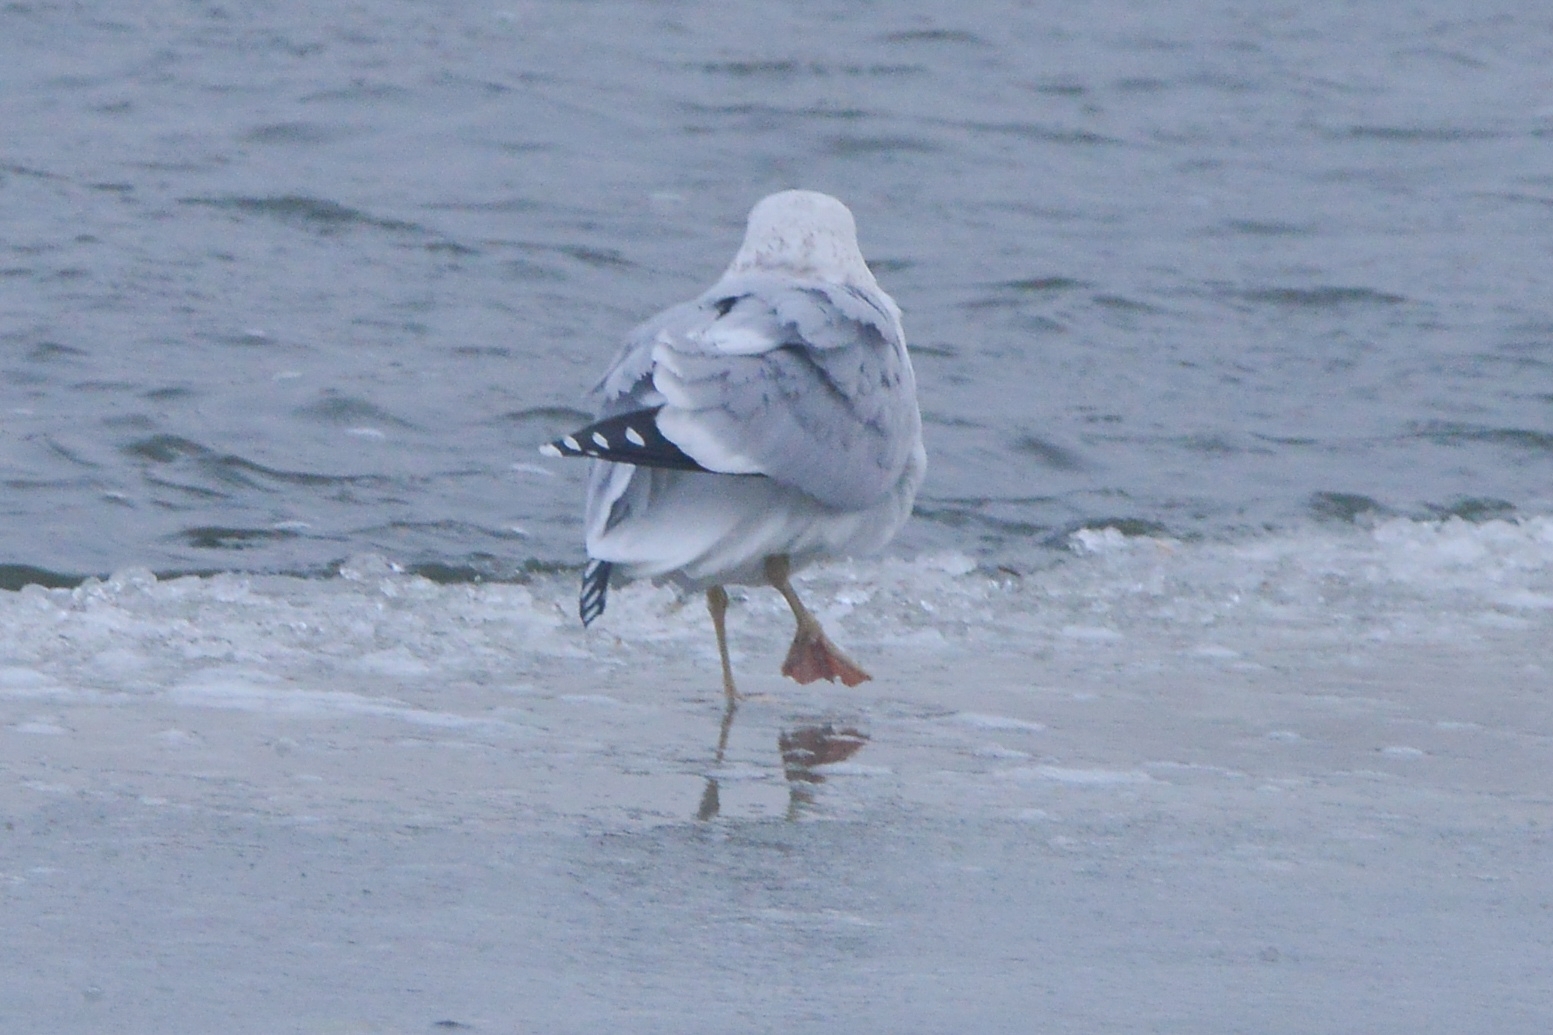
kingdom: Animalia
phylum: Chordata
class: Aves
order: Charadriiformes
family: Laridae
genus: Larus
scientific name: Larus argentatus
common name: Herring gull
